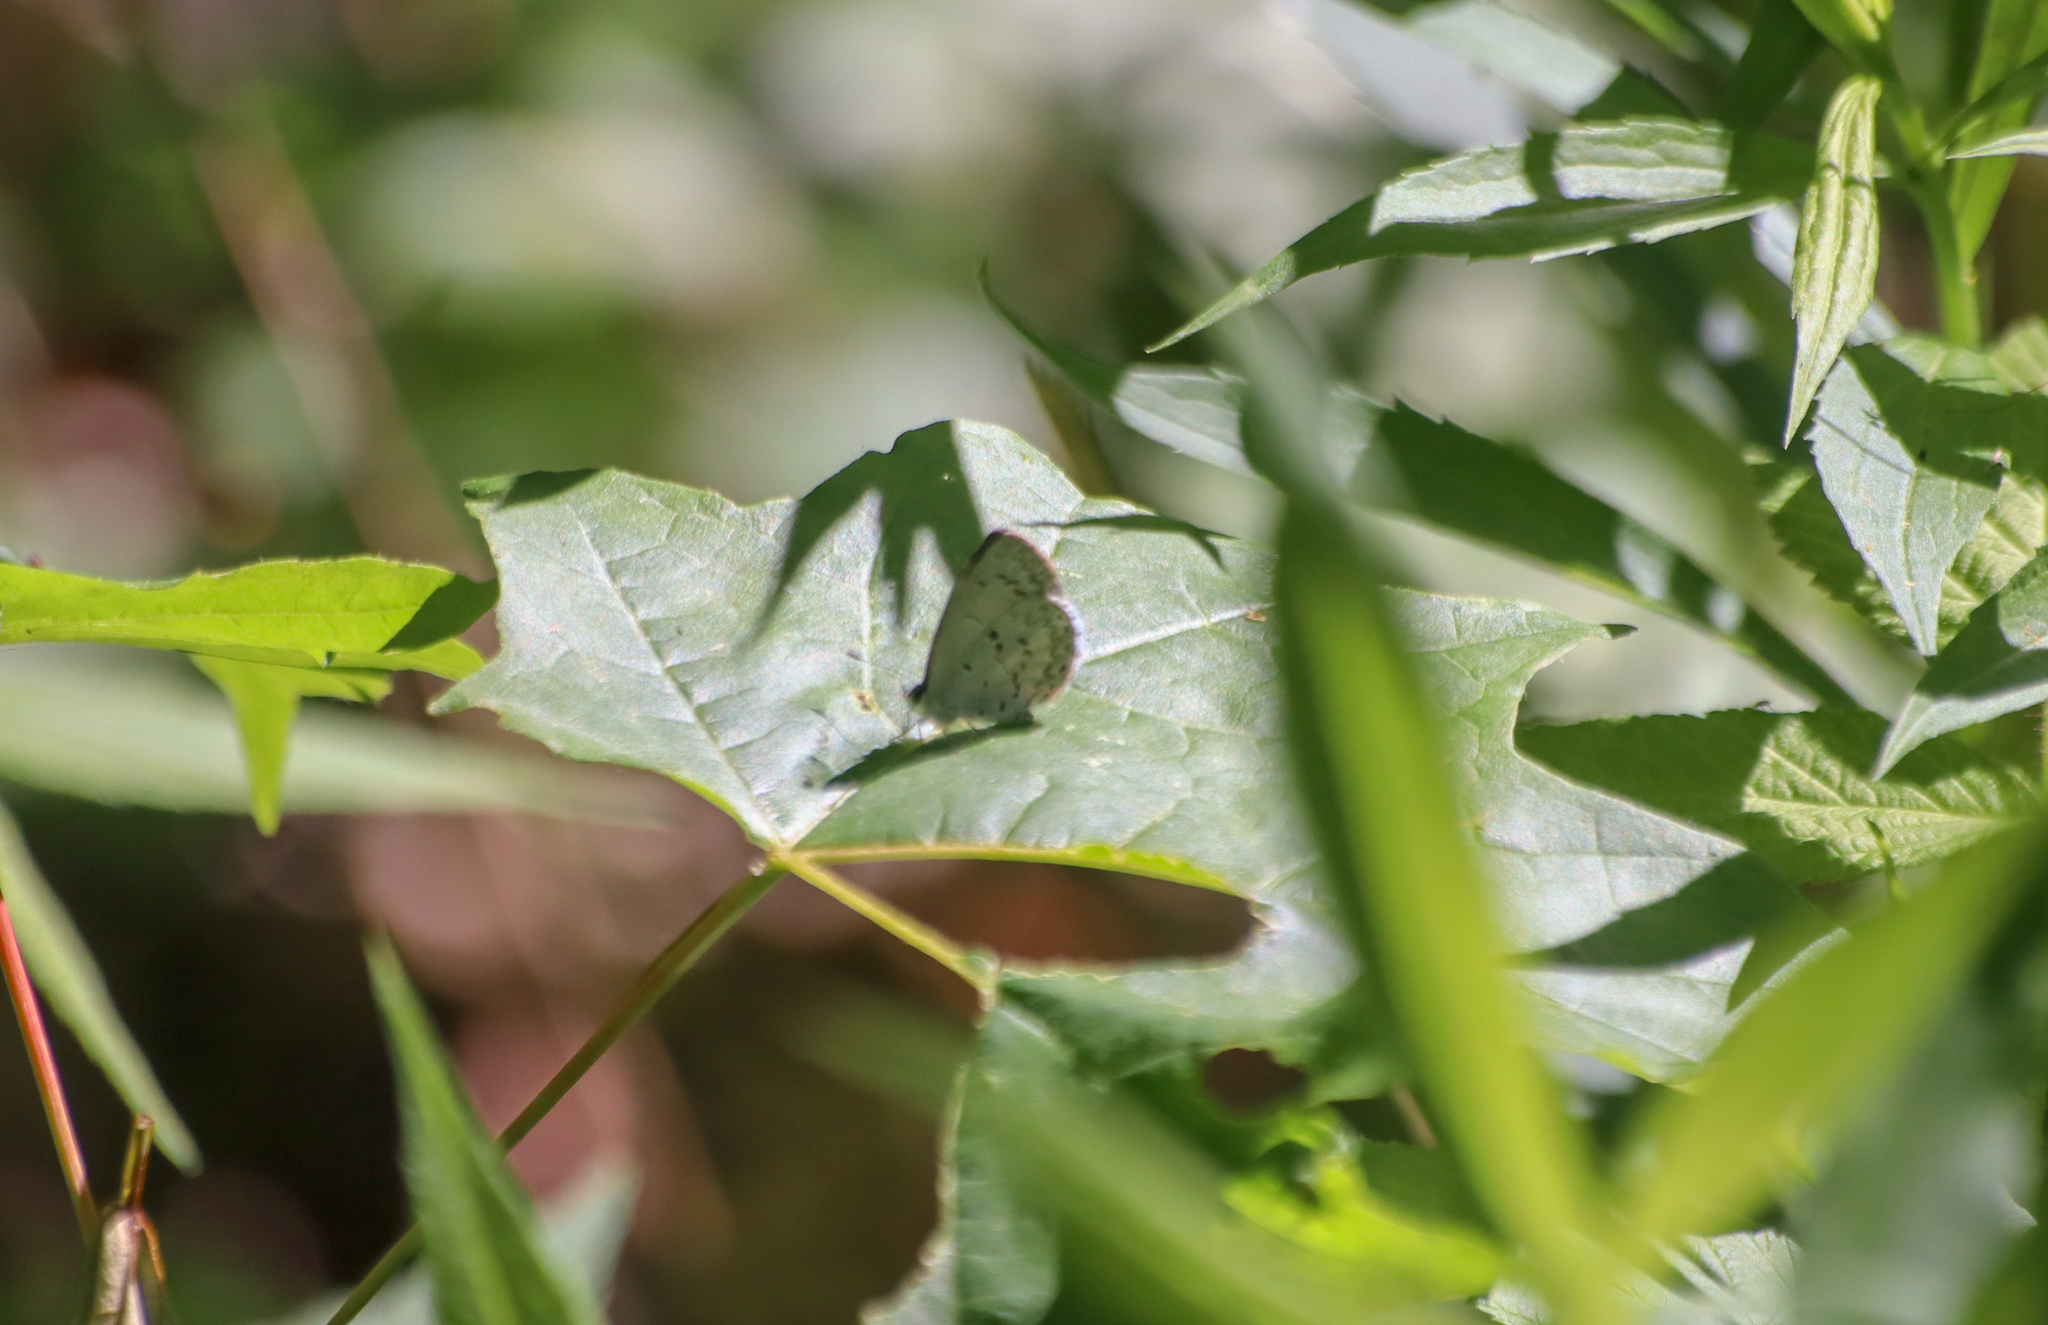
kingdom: Animalia
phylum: Arthropoda
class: Insecta
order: Lepidoptera
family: Lycaenidae
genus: Celastrina
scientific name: Celastrina lucia
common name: Lucia azure
